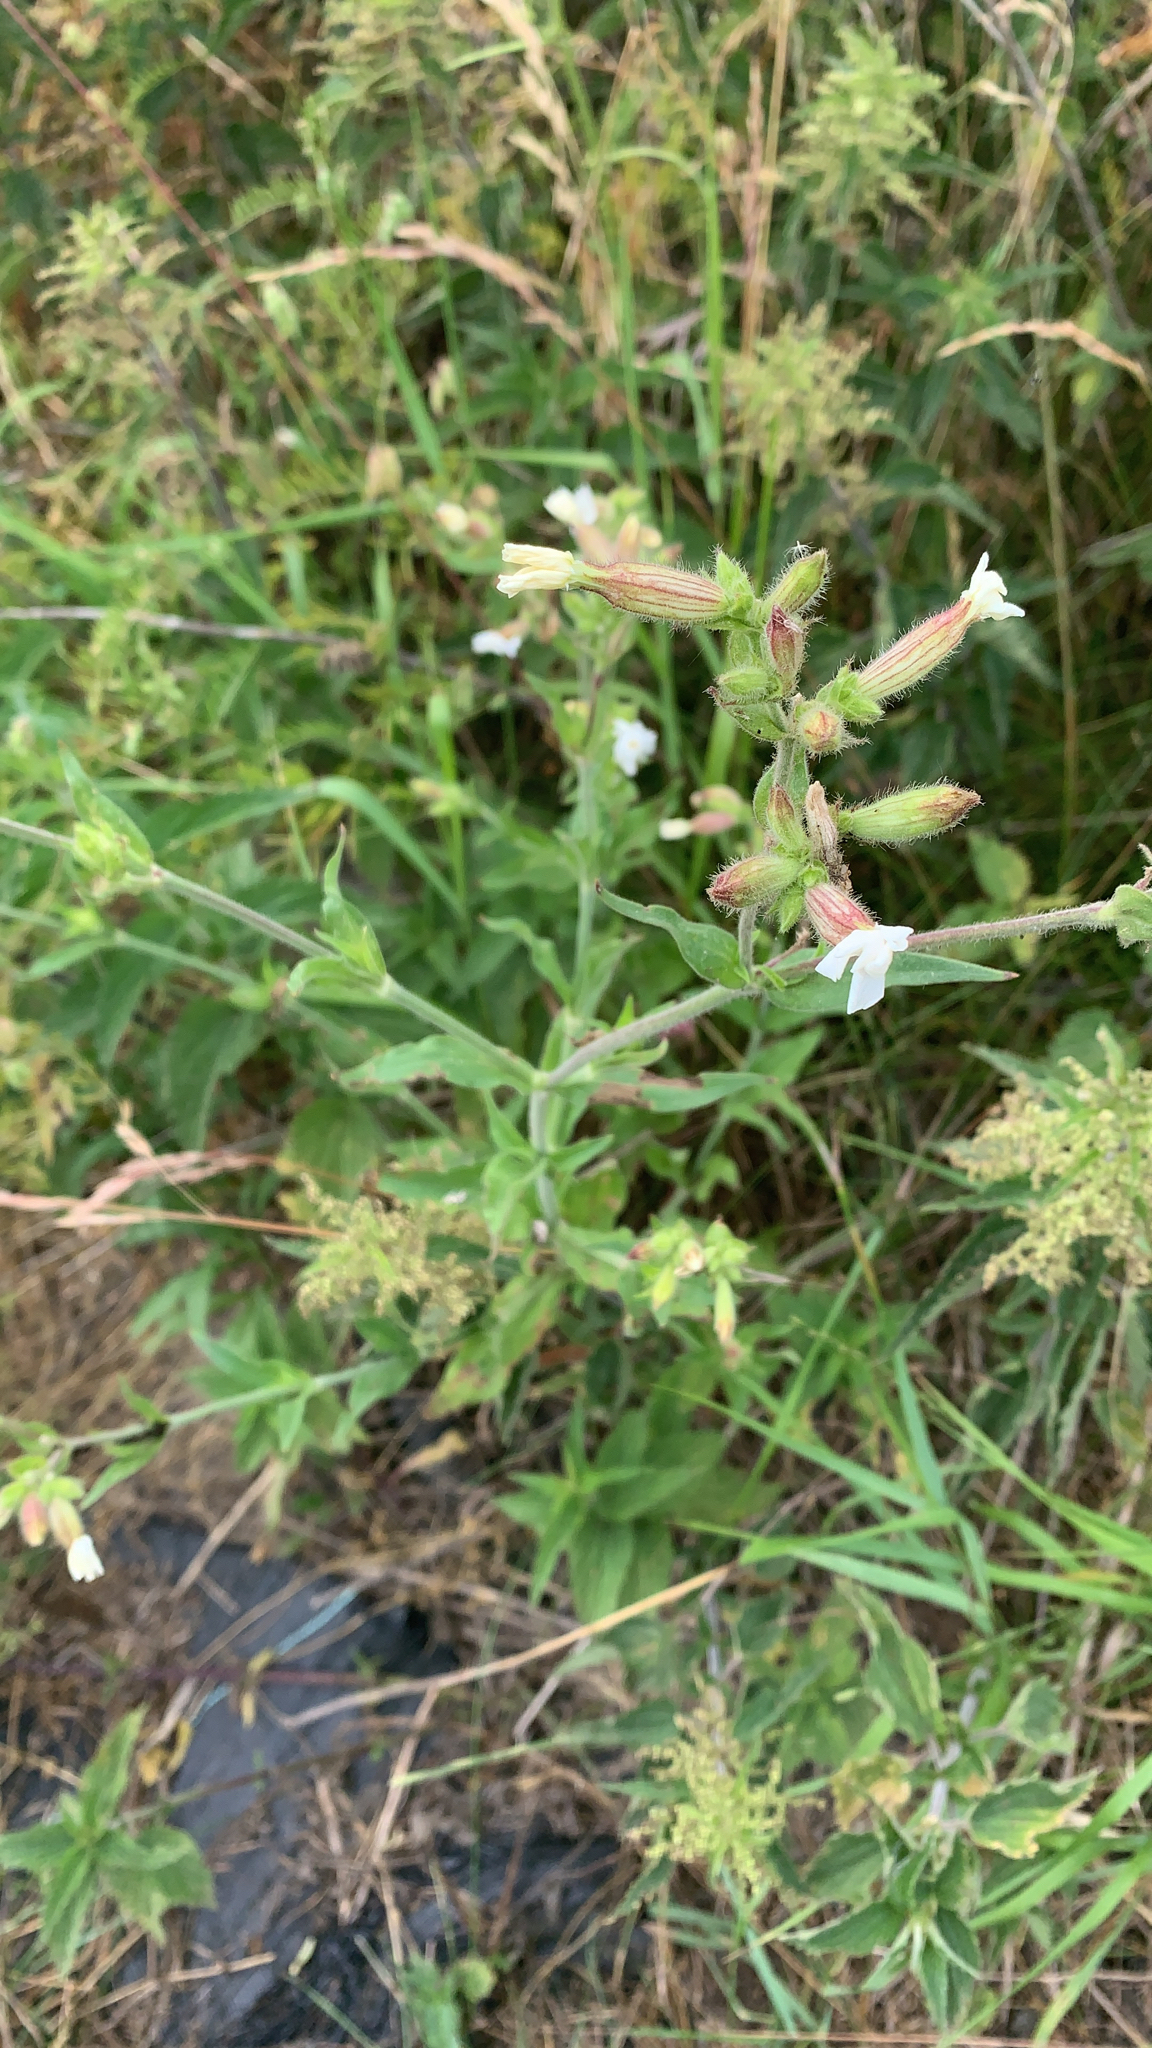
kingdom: Plantae
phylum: Tracheophyta
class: Magnoliopsida
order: Caryophyllales
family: Caryophyllaceae
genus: Silene
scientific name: Silene latifolia
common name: White campion
